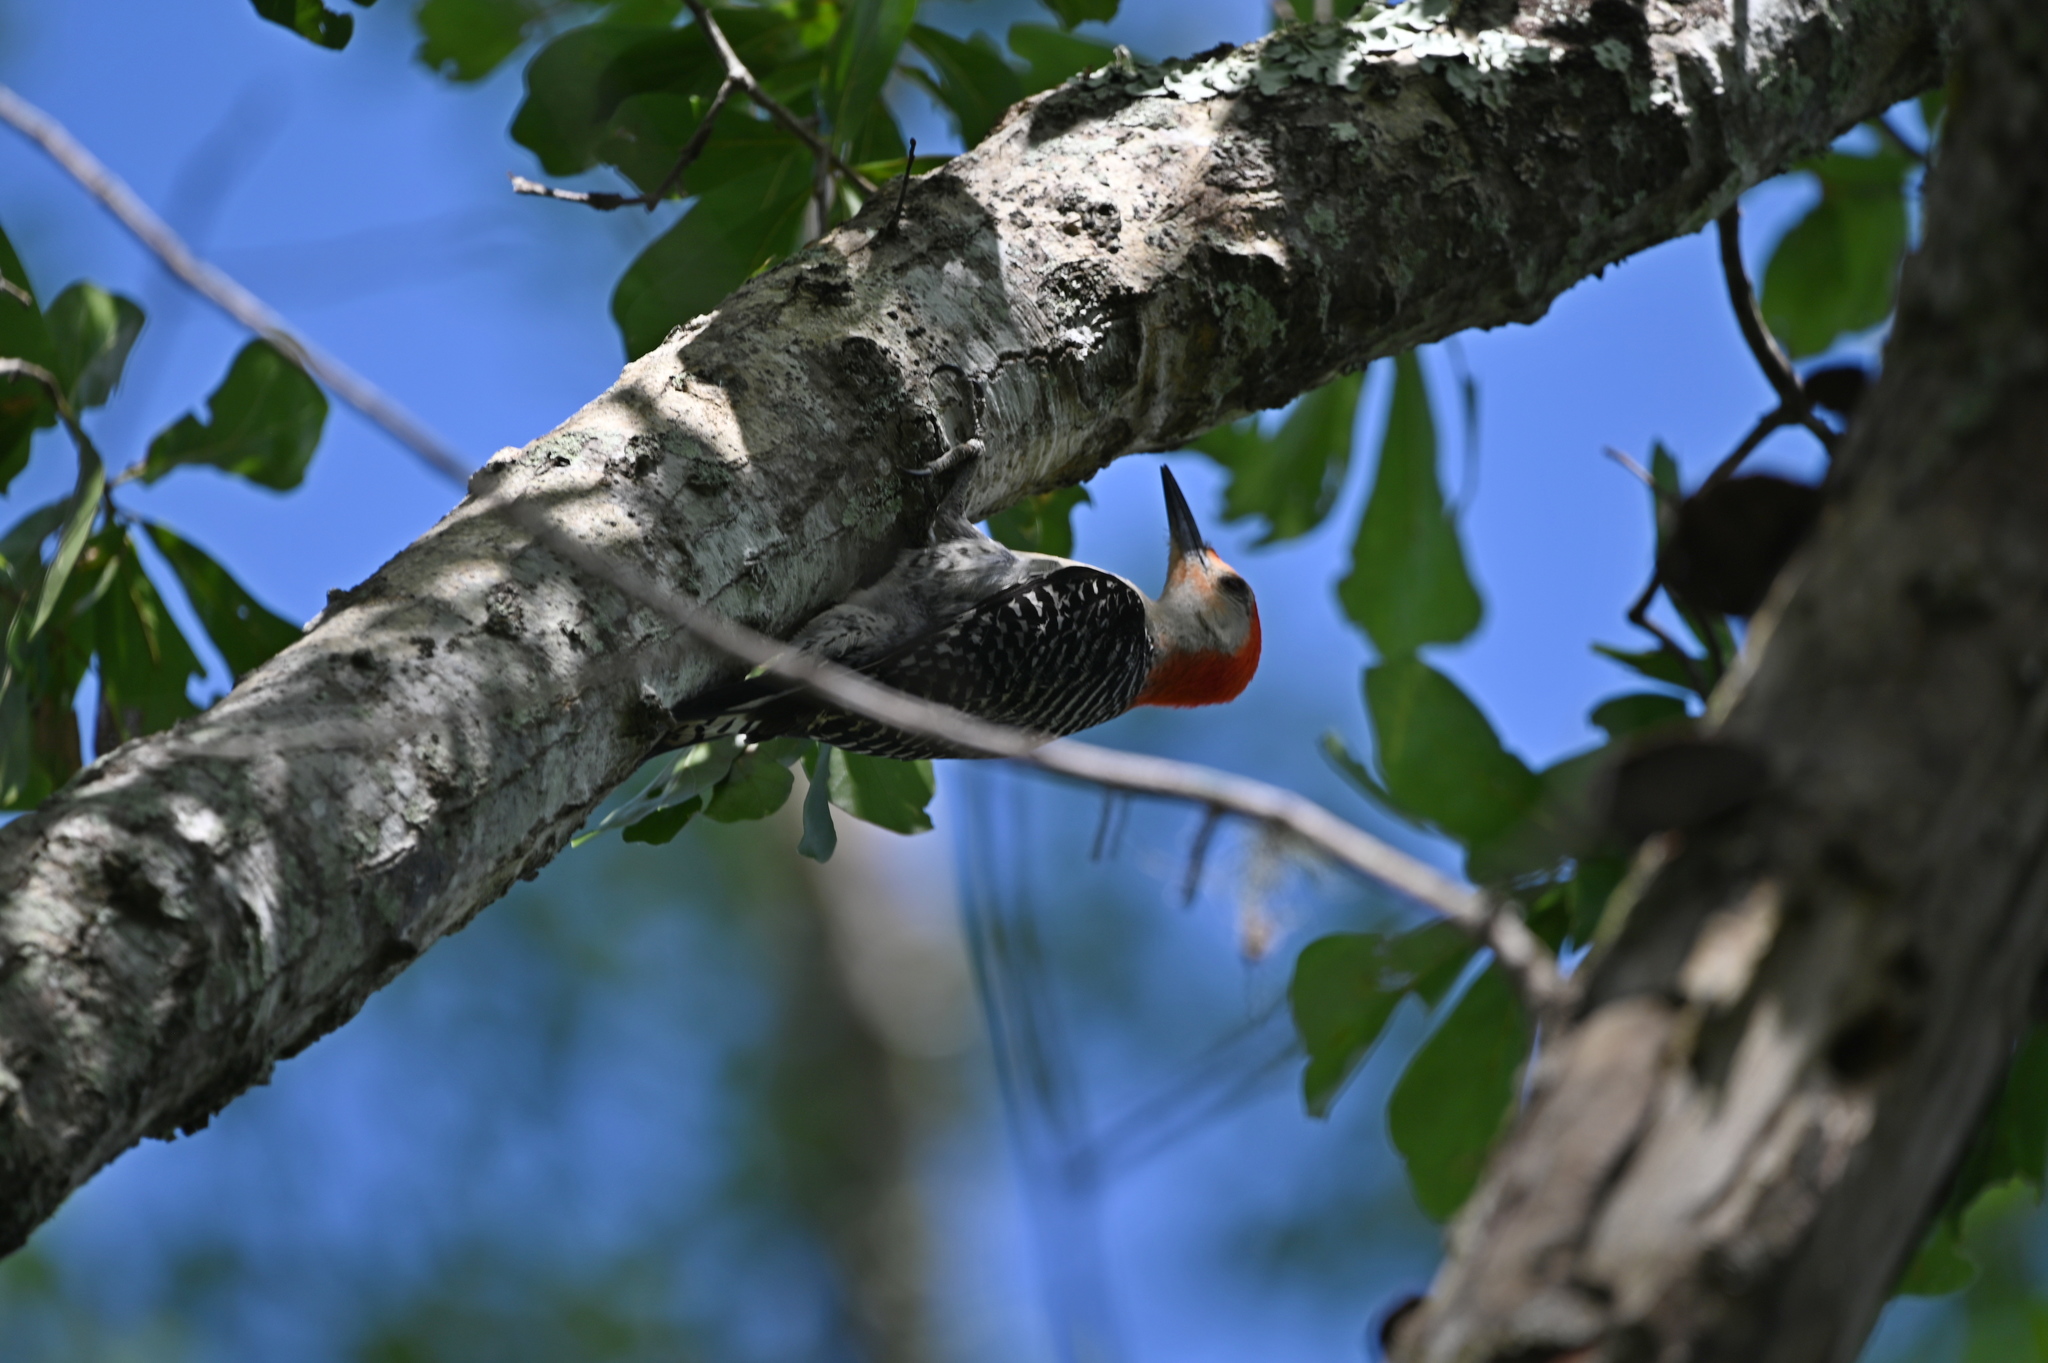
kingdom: Animalia
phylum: Chordata
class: Aves
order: Piciformes
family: Picidae
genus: Melanerpes
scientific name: Melanerpes carolinus
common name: Red-bellied woodpecker
